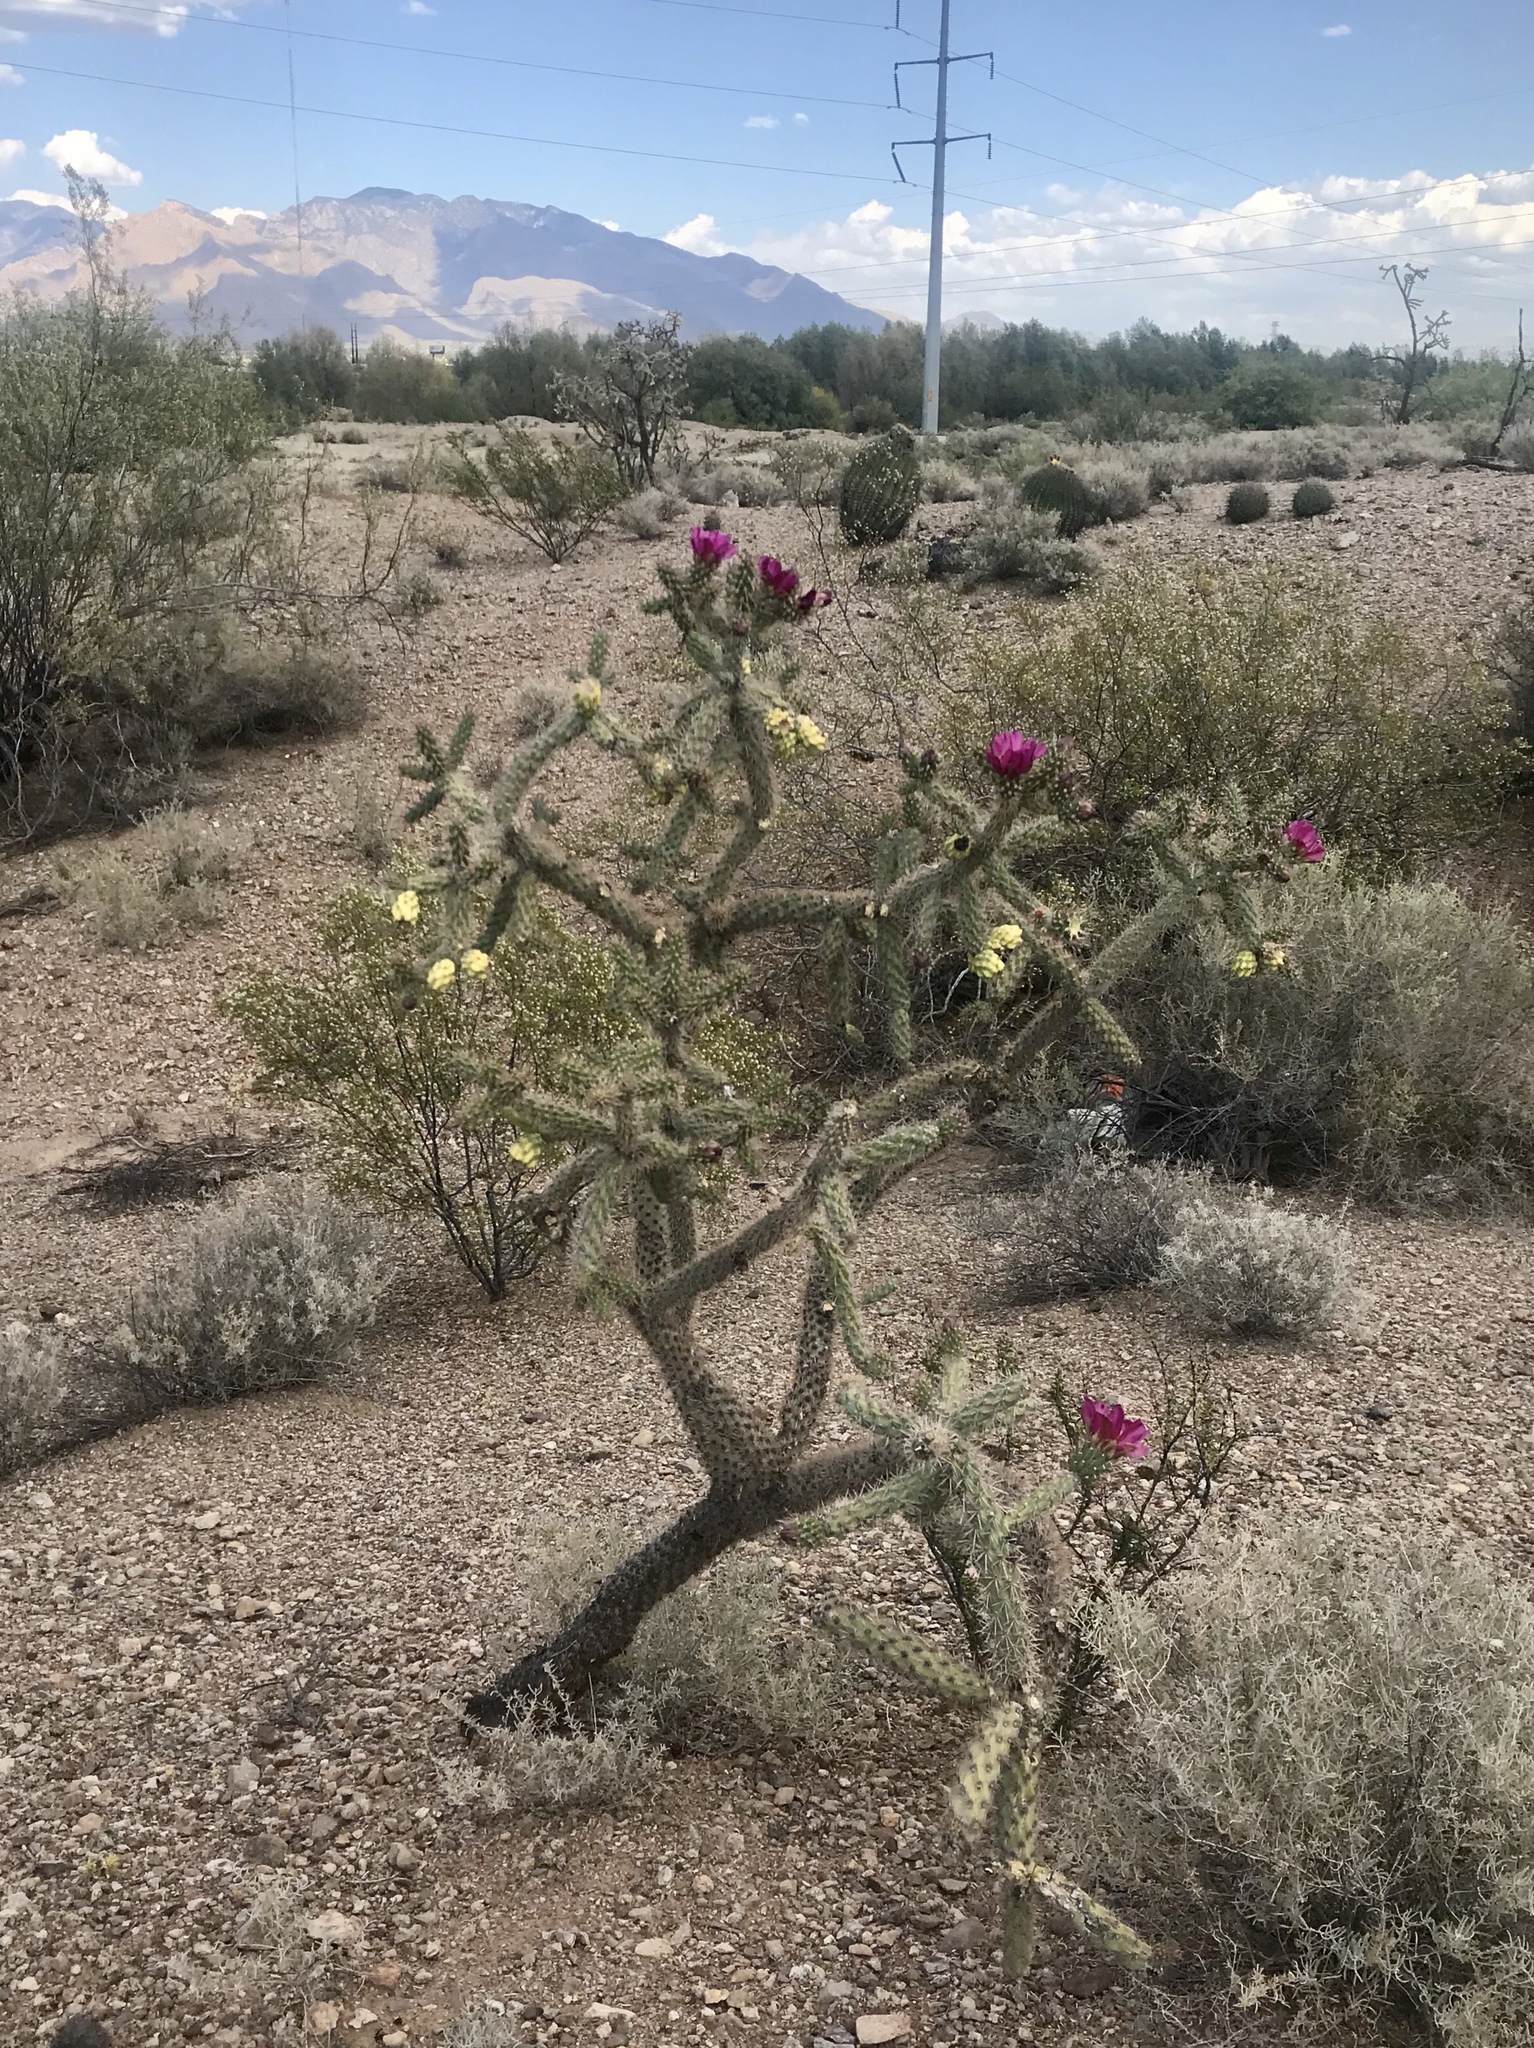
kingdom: Plantae
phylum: Tracheophyta
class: Magnoliopsida
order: Caryophyllales
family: Cactaceae
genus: Cylindropuntia
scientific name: Cylindropuntia imbricata
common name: Candelabrum cactus
